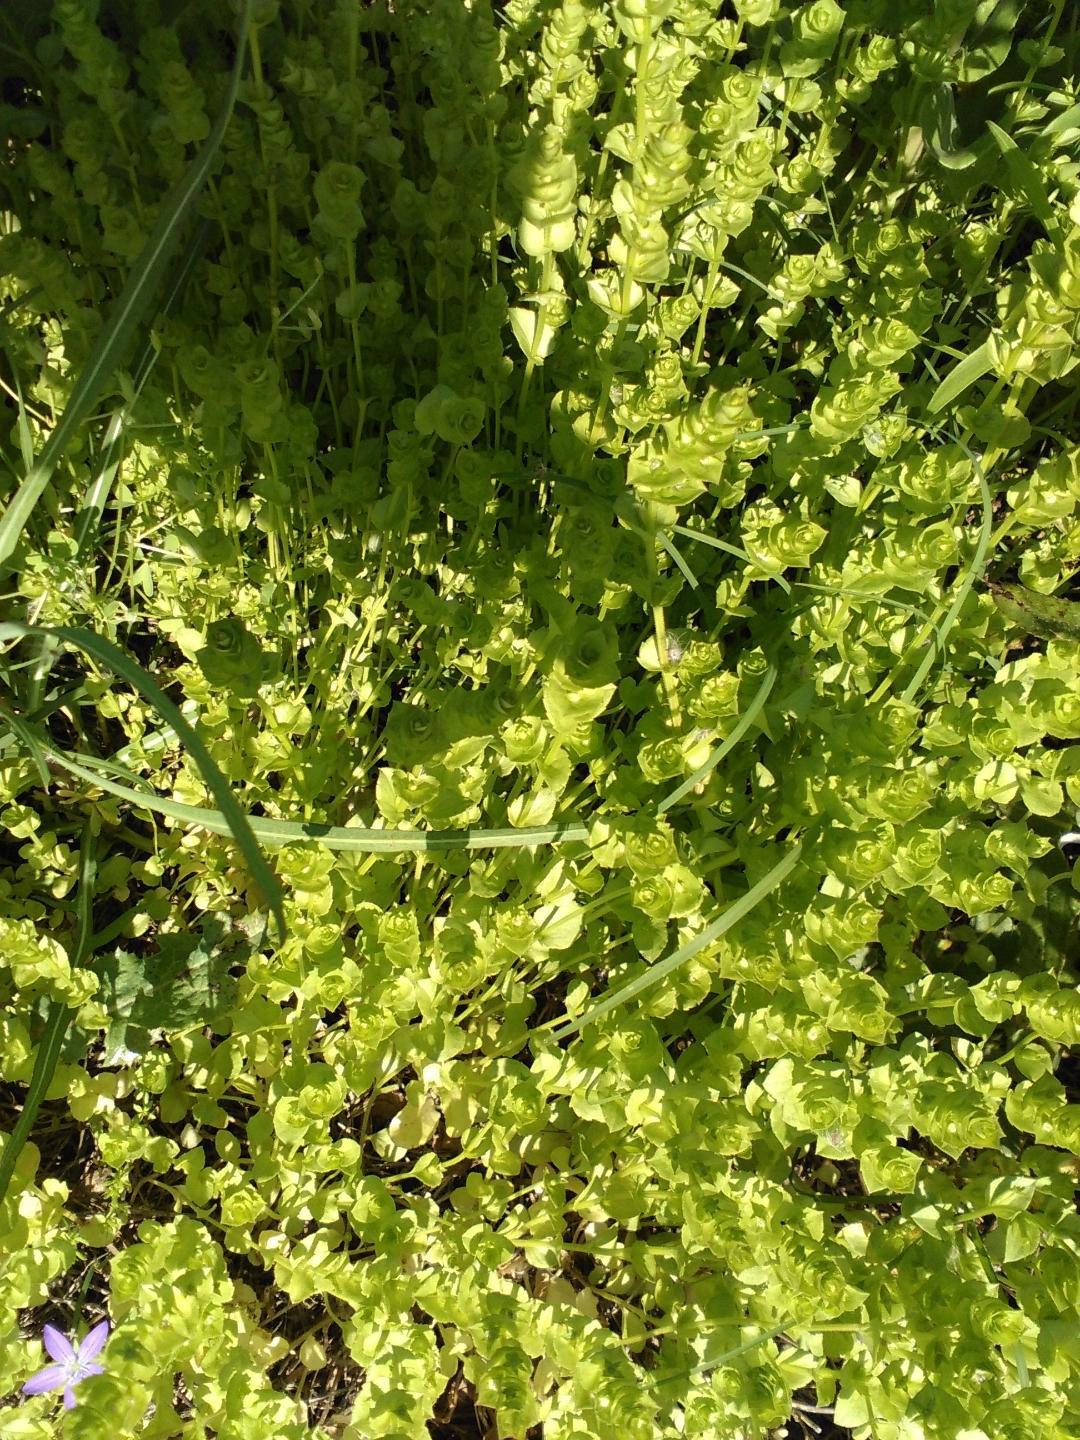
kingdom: Plantae
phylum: Tracheophyta
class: Magnoliopsida
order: Asterales
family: Campanulaceae
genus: Triodanis
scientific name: Triodanis perfoliata
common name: Clasping venus' looking-glass
